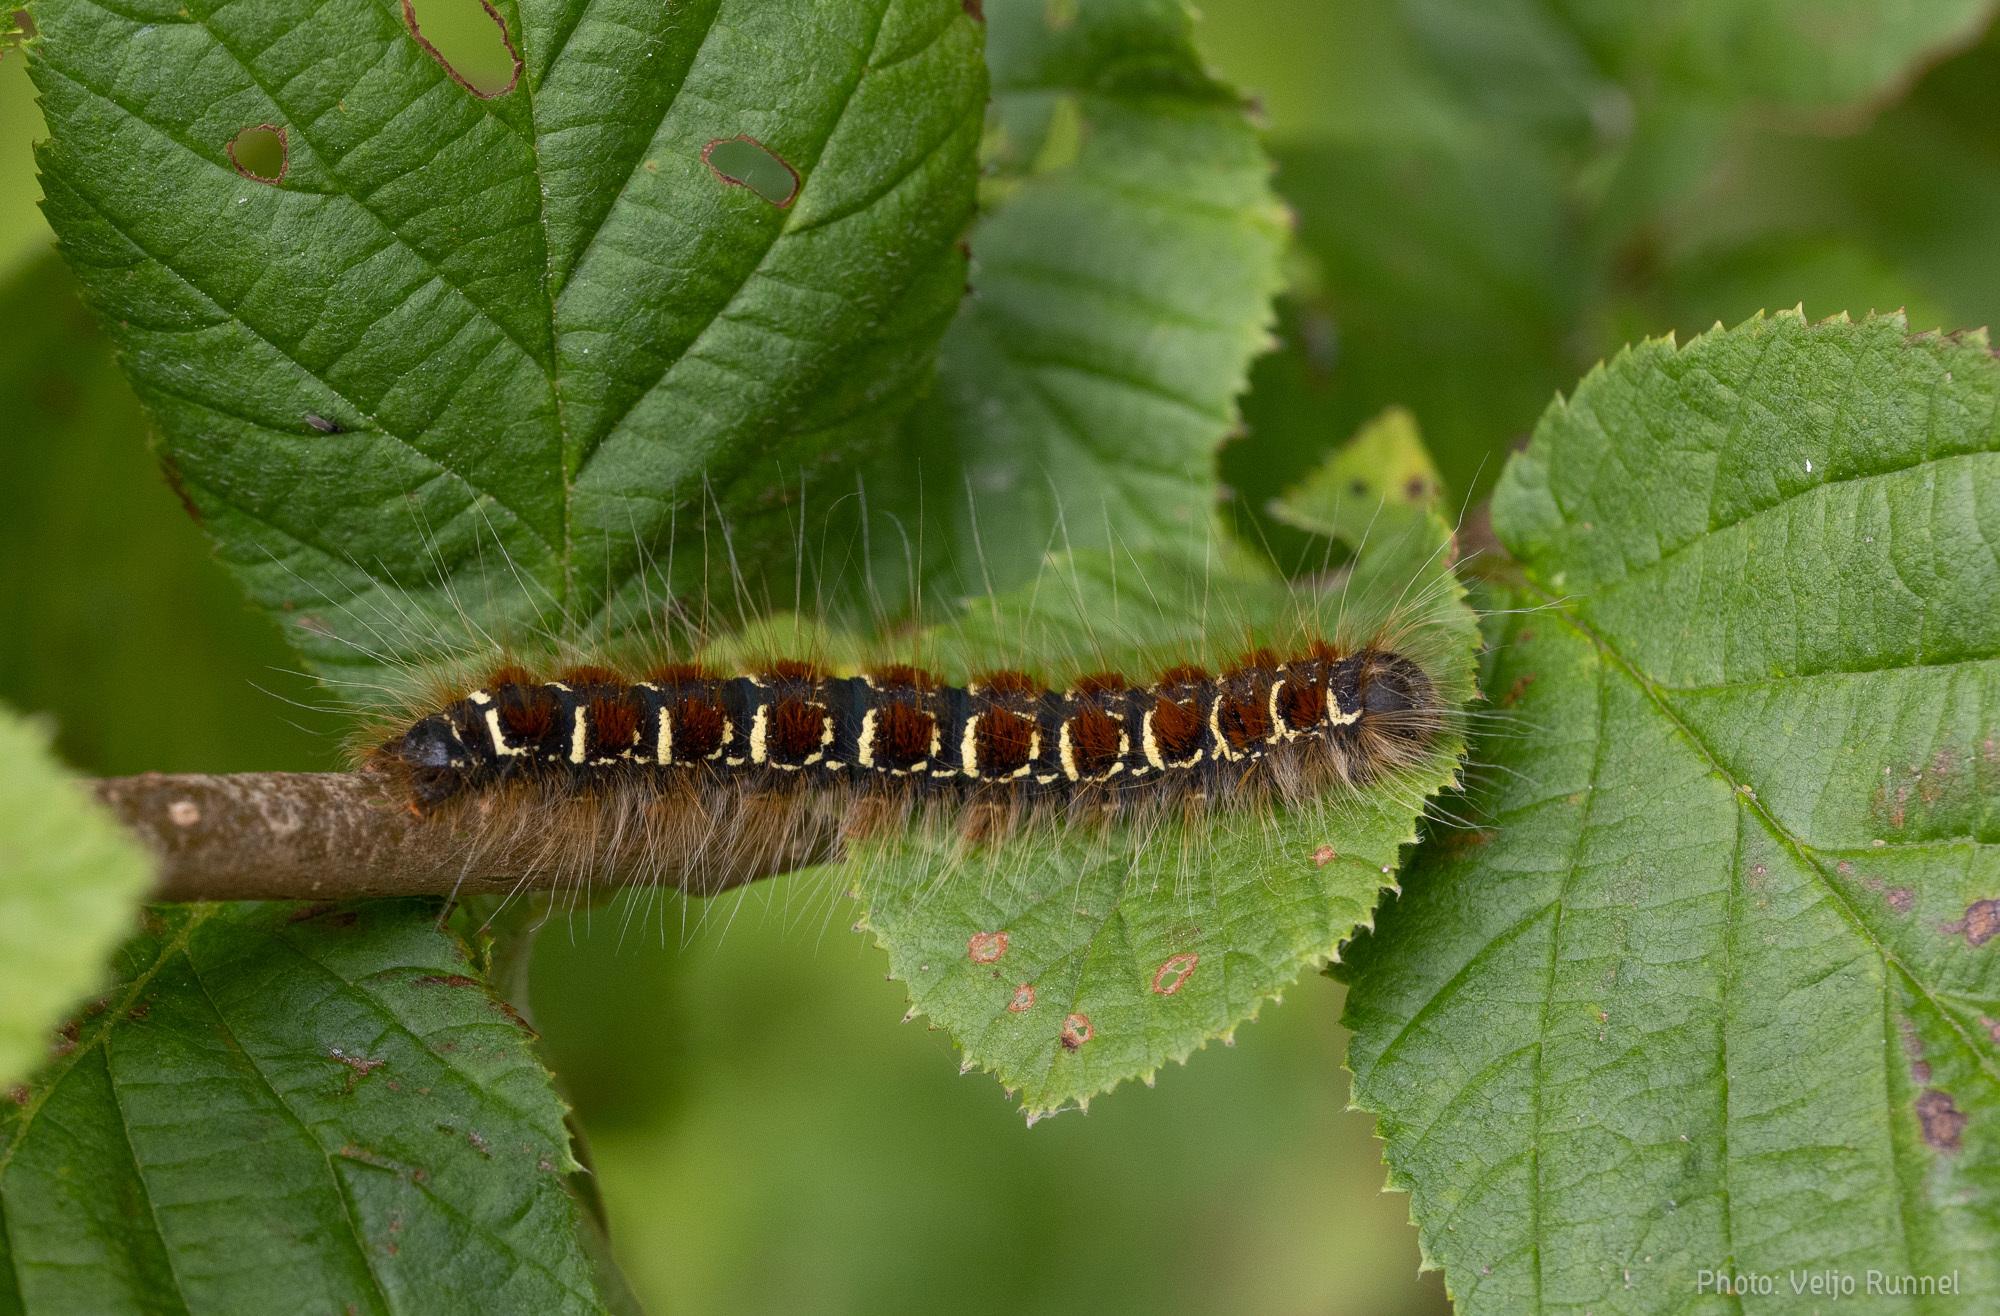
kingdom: Animalia
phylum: Arthropoda
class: Insecta
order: Lepidoptera
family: Lasiocampidae
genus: Eriogaster
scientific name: Eriogaster lanestris
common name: Small eggar
